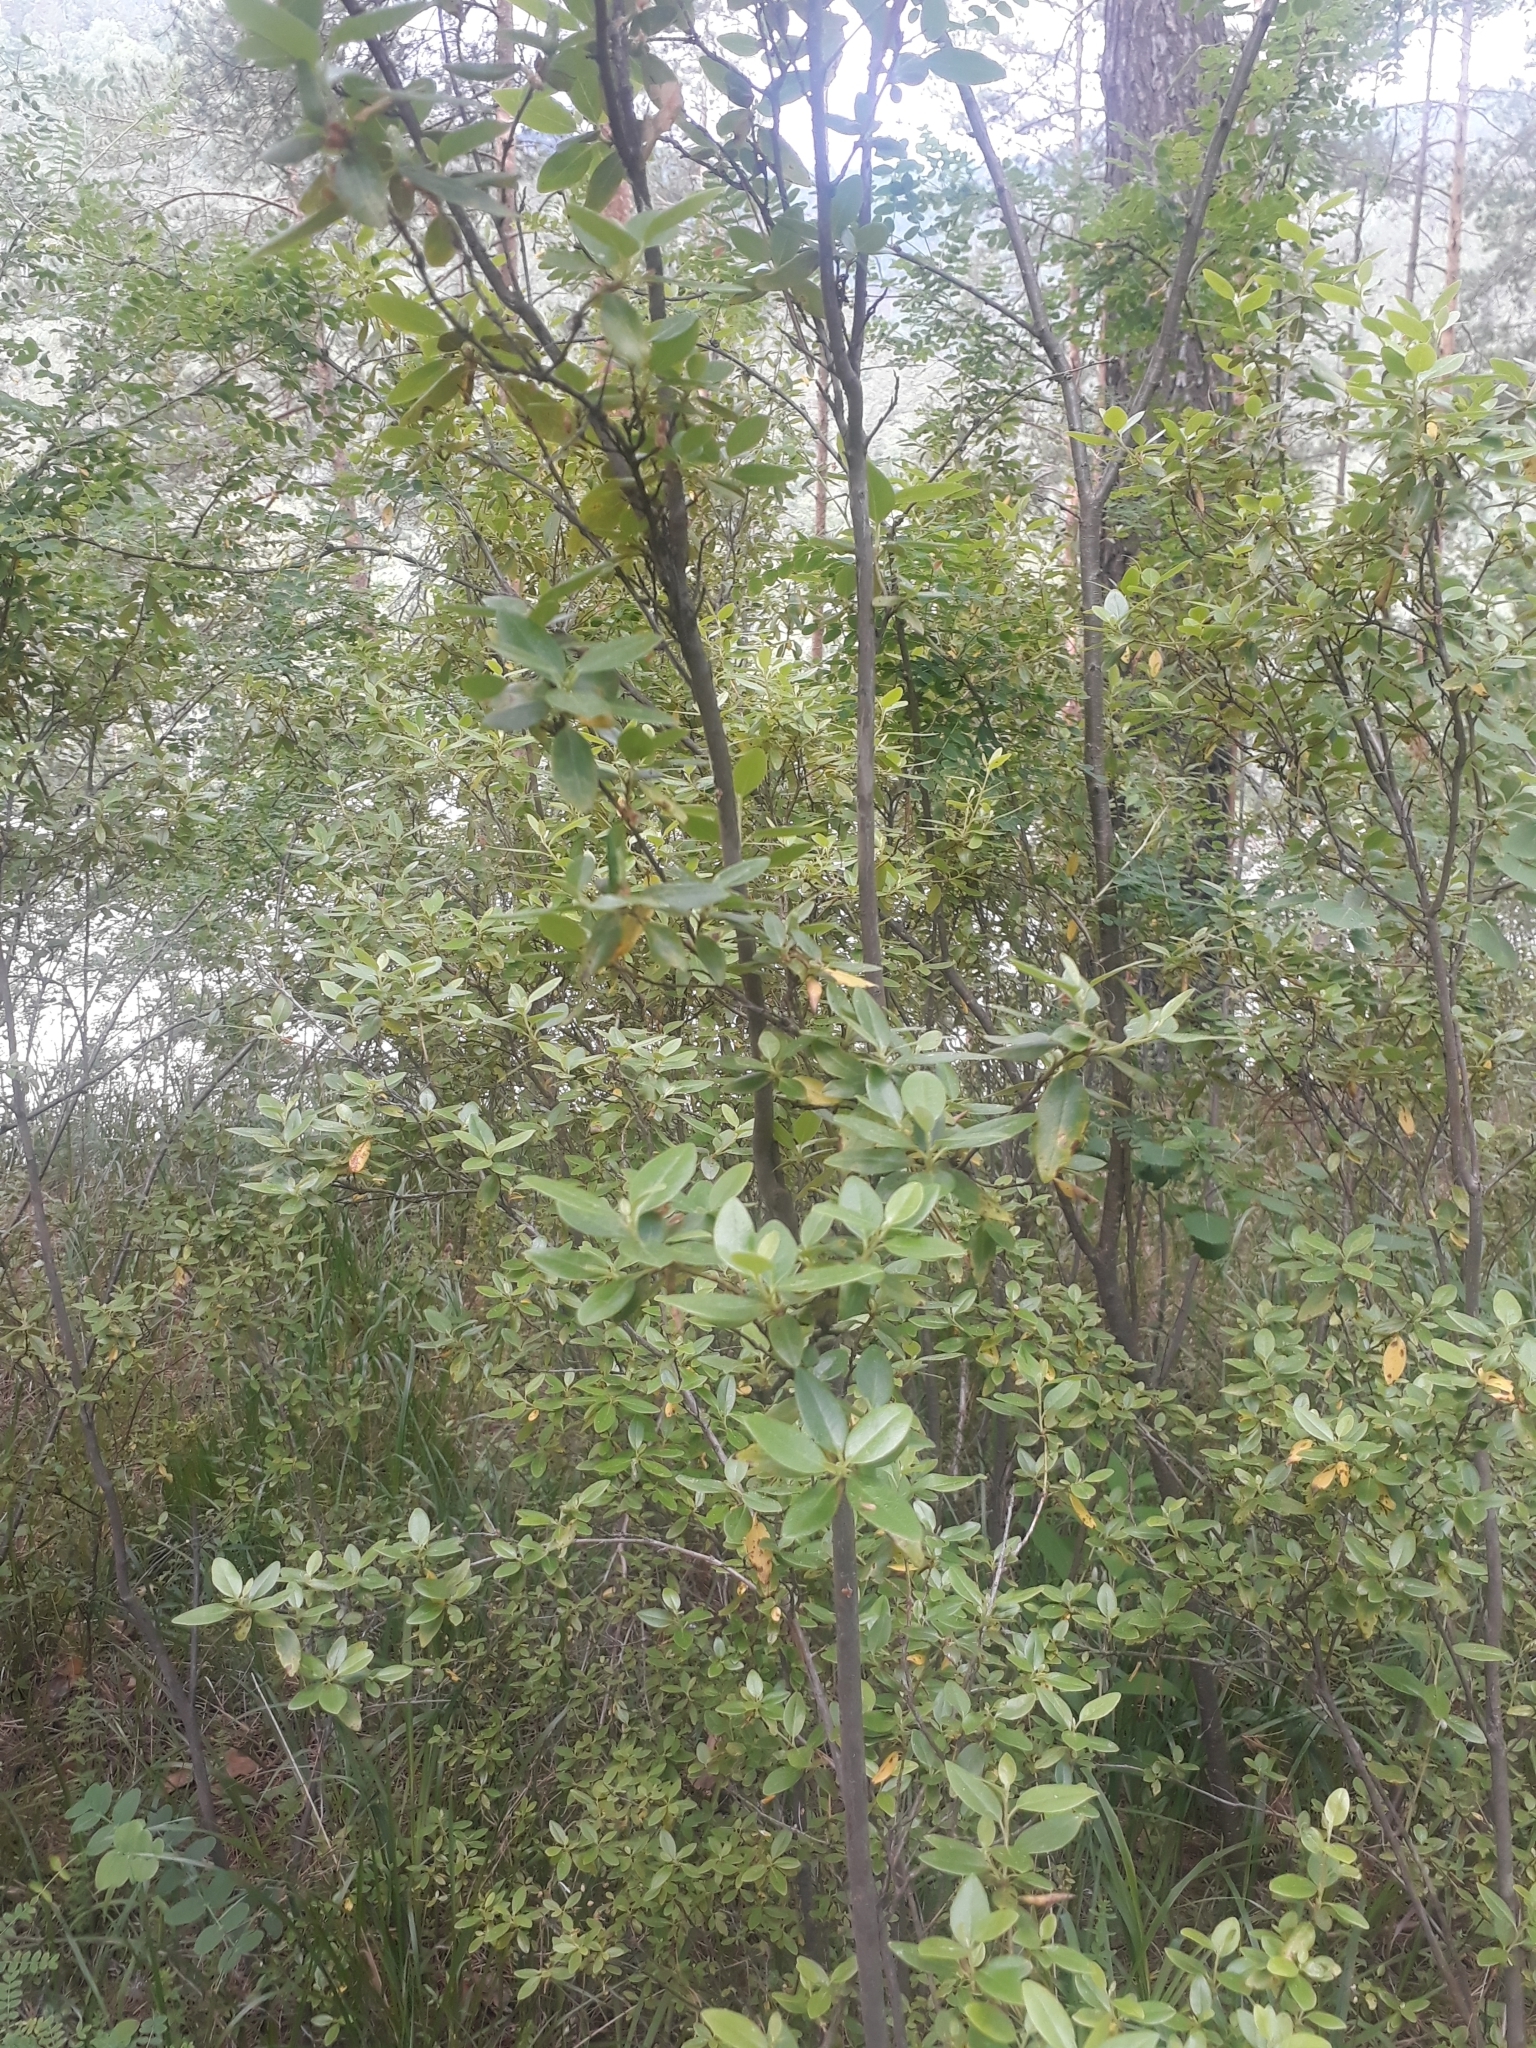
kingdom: Plantae
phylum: Tracheophyta
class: Magnoliopsida
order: Ericales
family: Ericaceae
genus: Rhododendron
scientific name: Rhododendron dauricum
